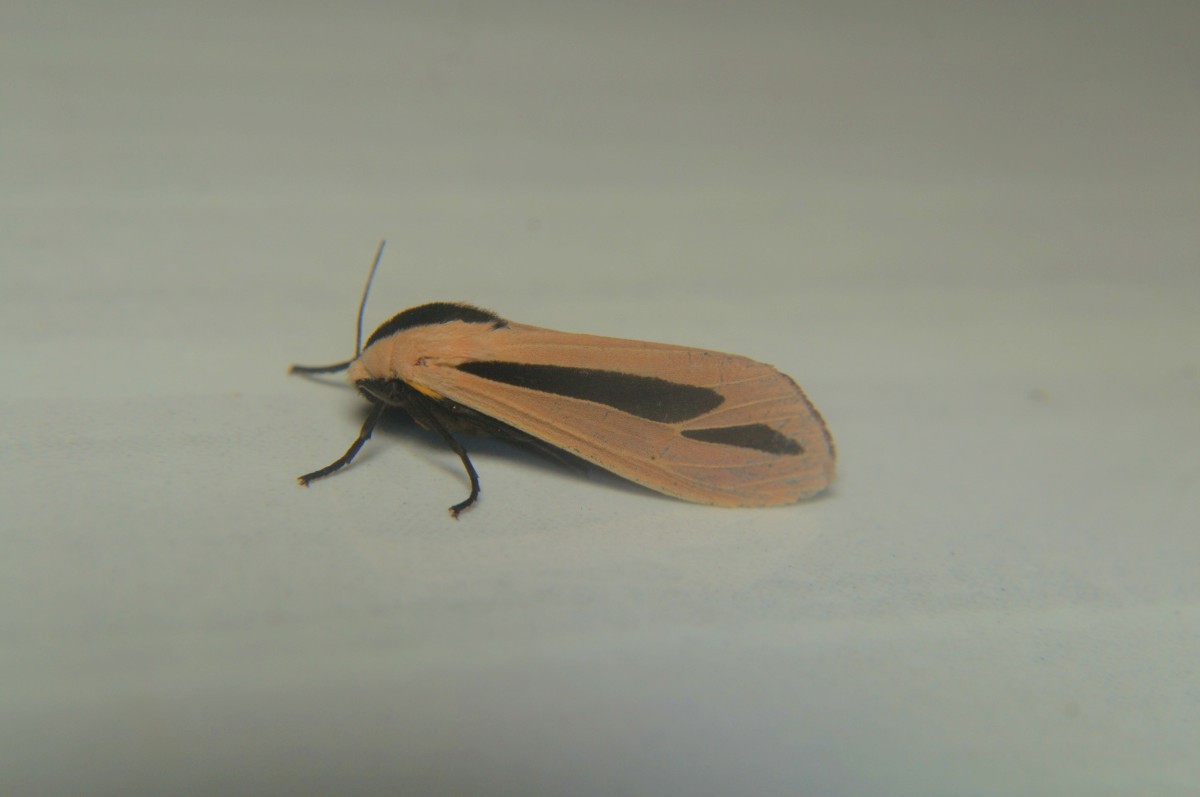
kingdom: Animalia
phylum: Arthropoda
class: Insecta
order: Lepidoptera
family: Erebidae
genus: Creatonotos
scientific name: Creatonotos gangis
